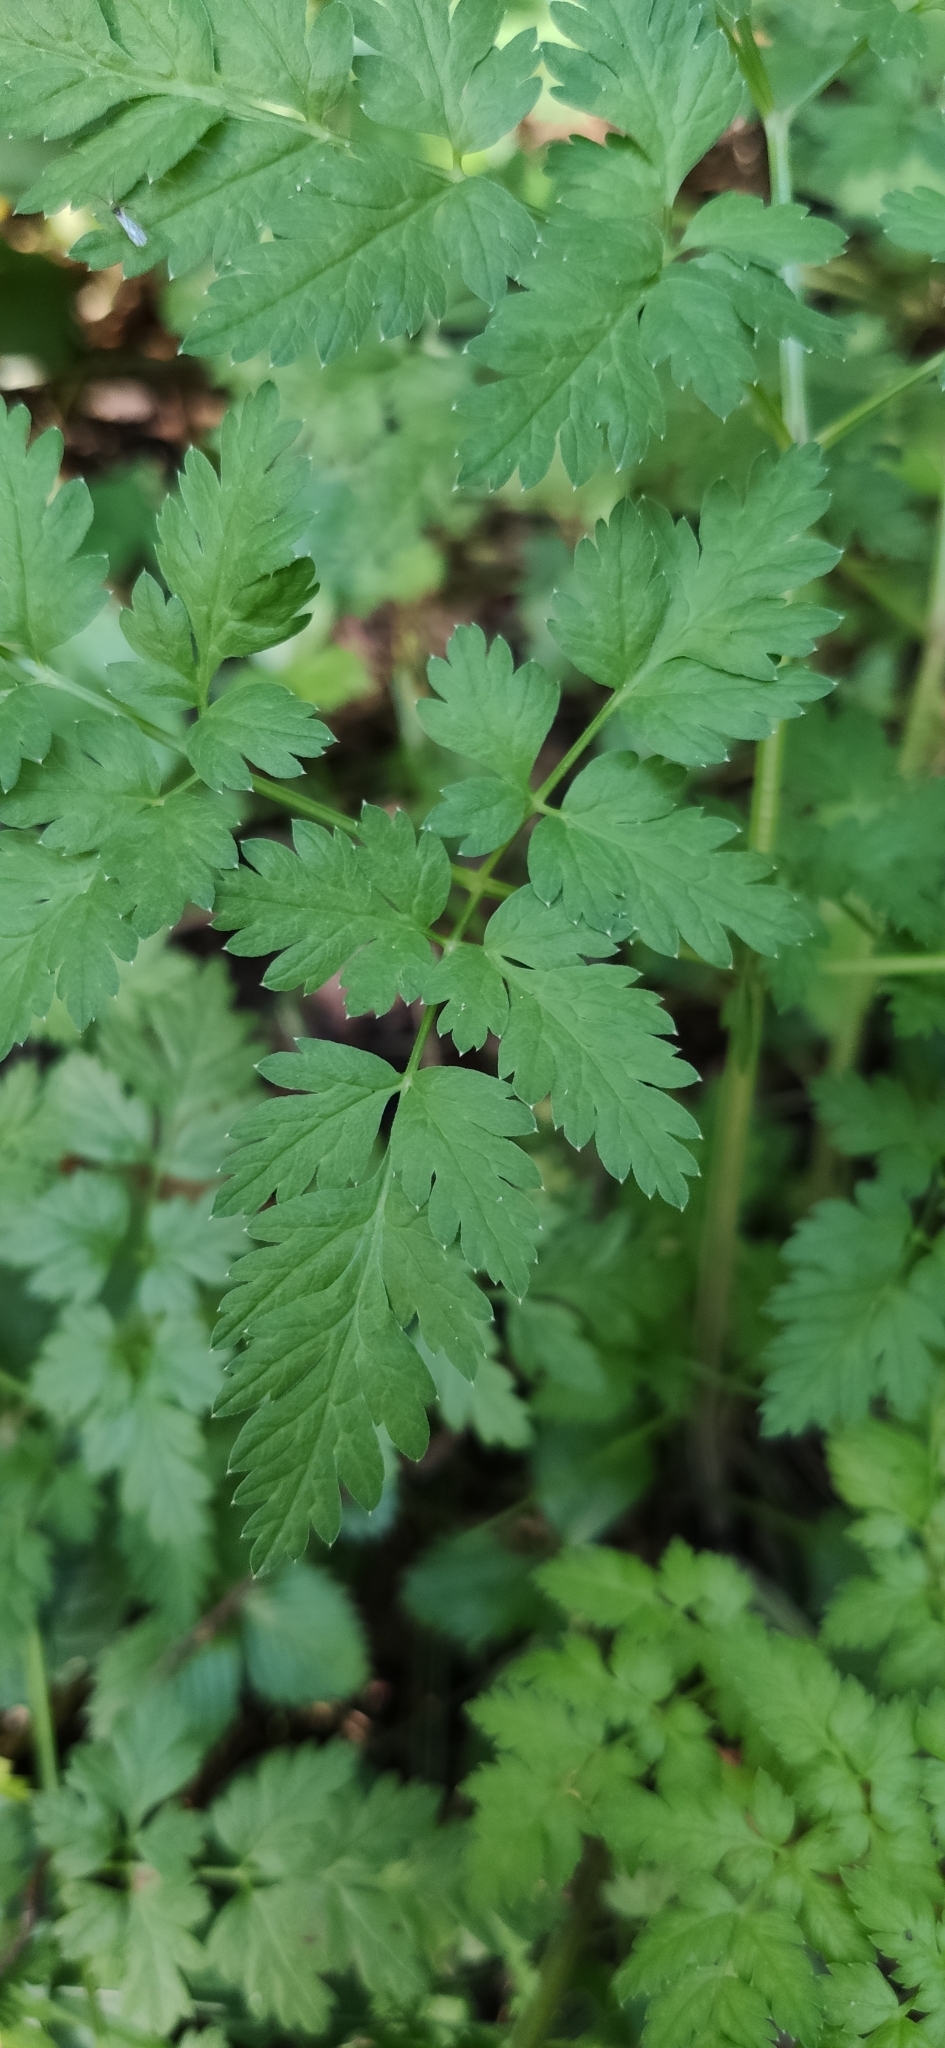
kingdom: Plantae
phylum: Tracheophyta
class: Magnoliopsida
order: Apiales
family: Apiaceae
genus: Anthriscus
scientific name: Anthriscus sylvestris
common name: Cow parsley
